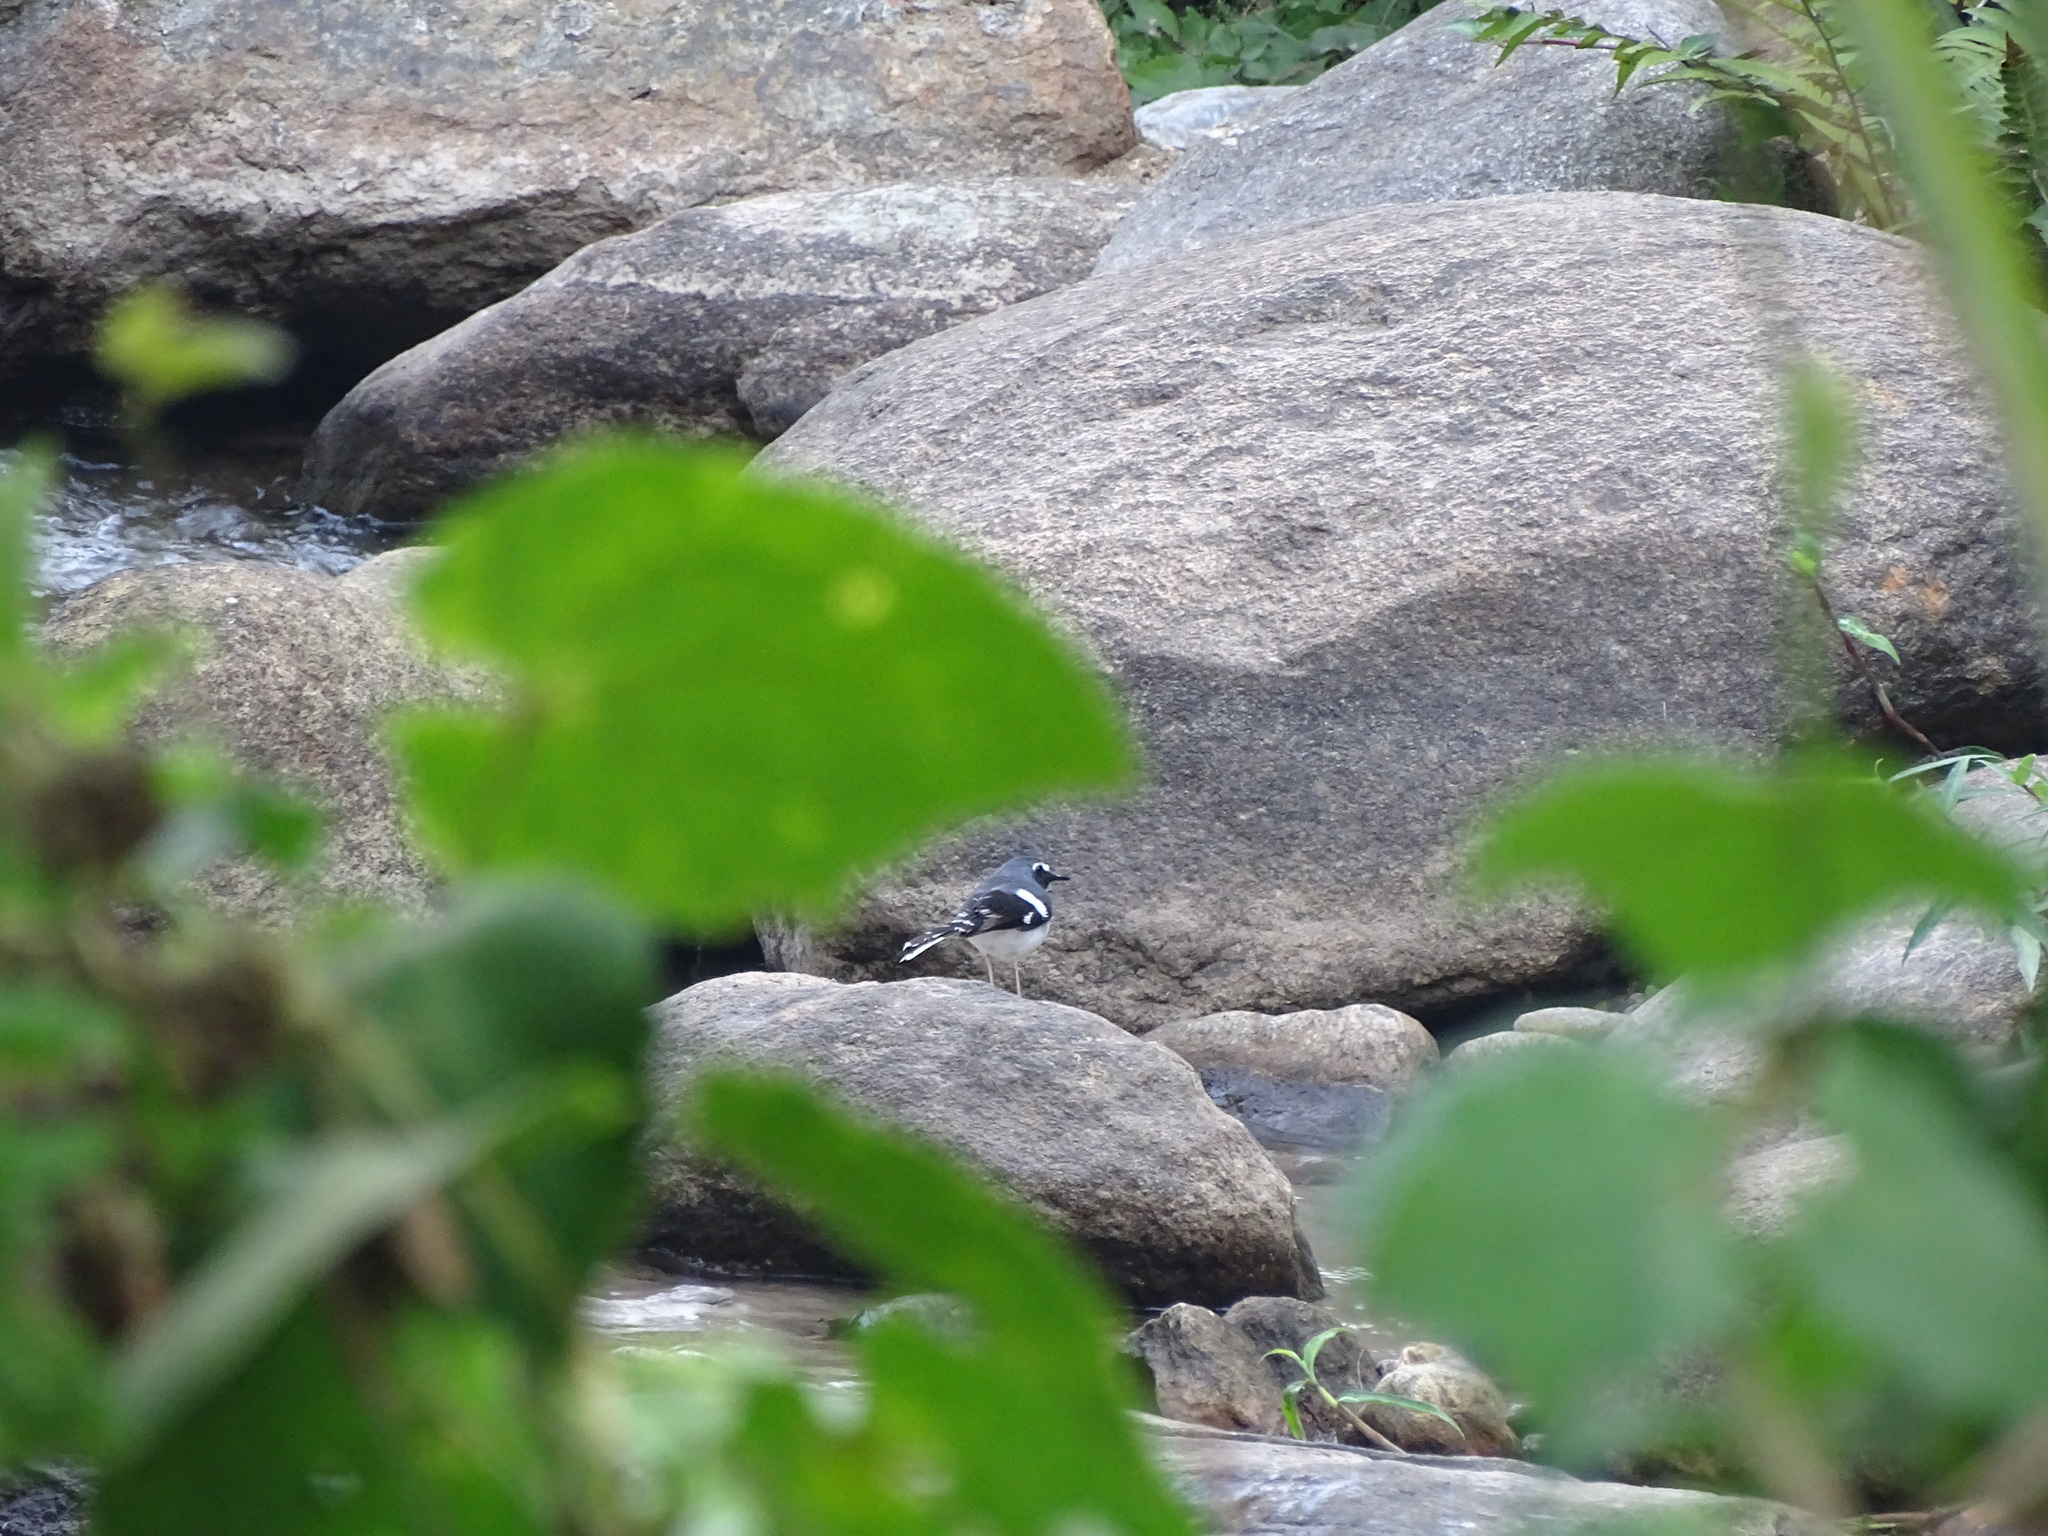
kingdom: Animalia
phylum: Chordata
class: Aves
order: Passeriformes
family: Muscicapidae
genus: Enicurus
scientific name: Enicurus schistaceus
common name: Slaty-backed forktail
